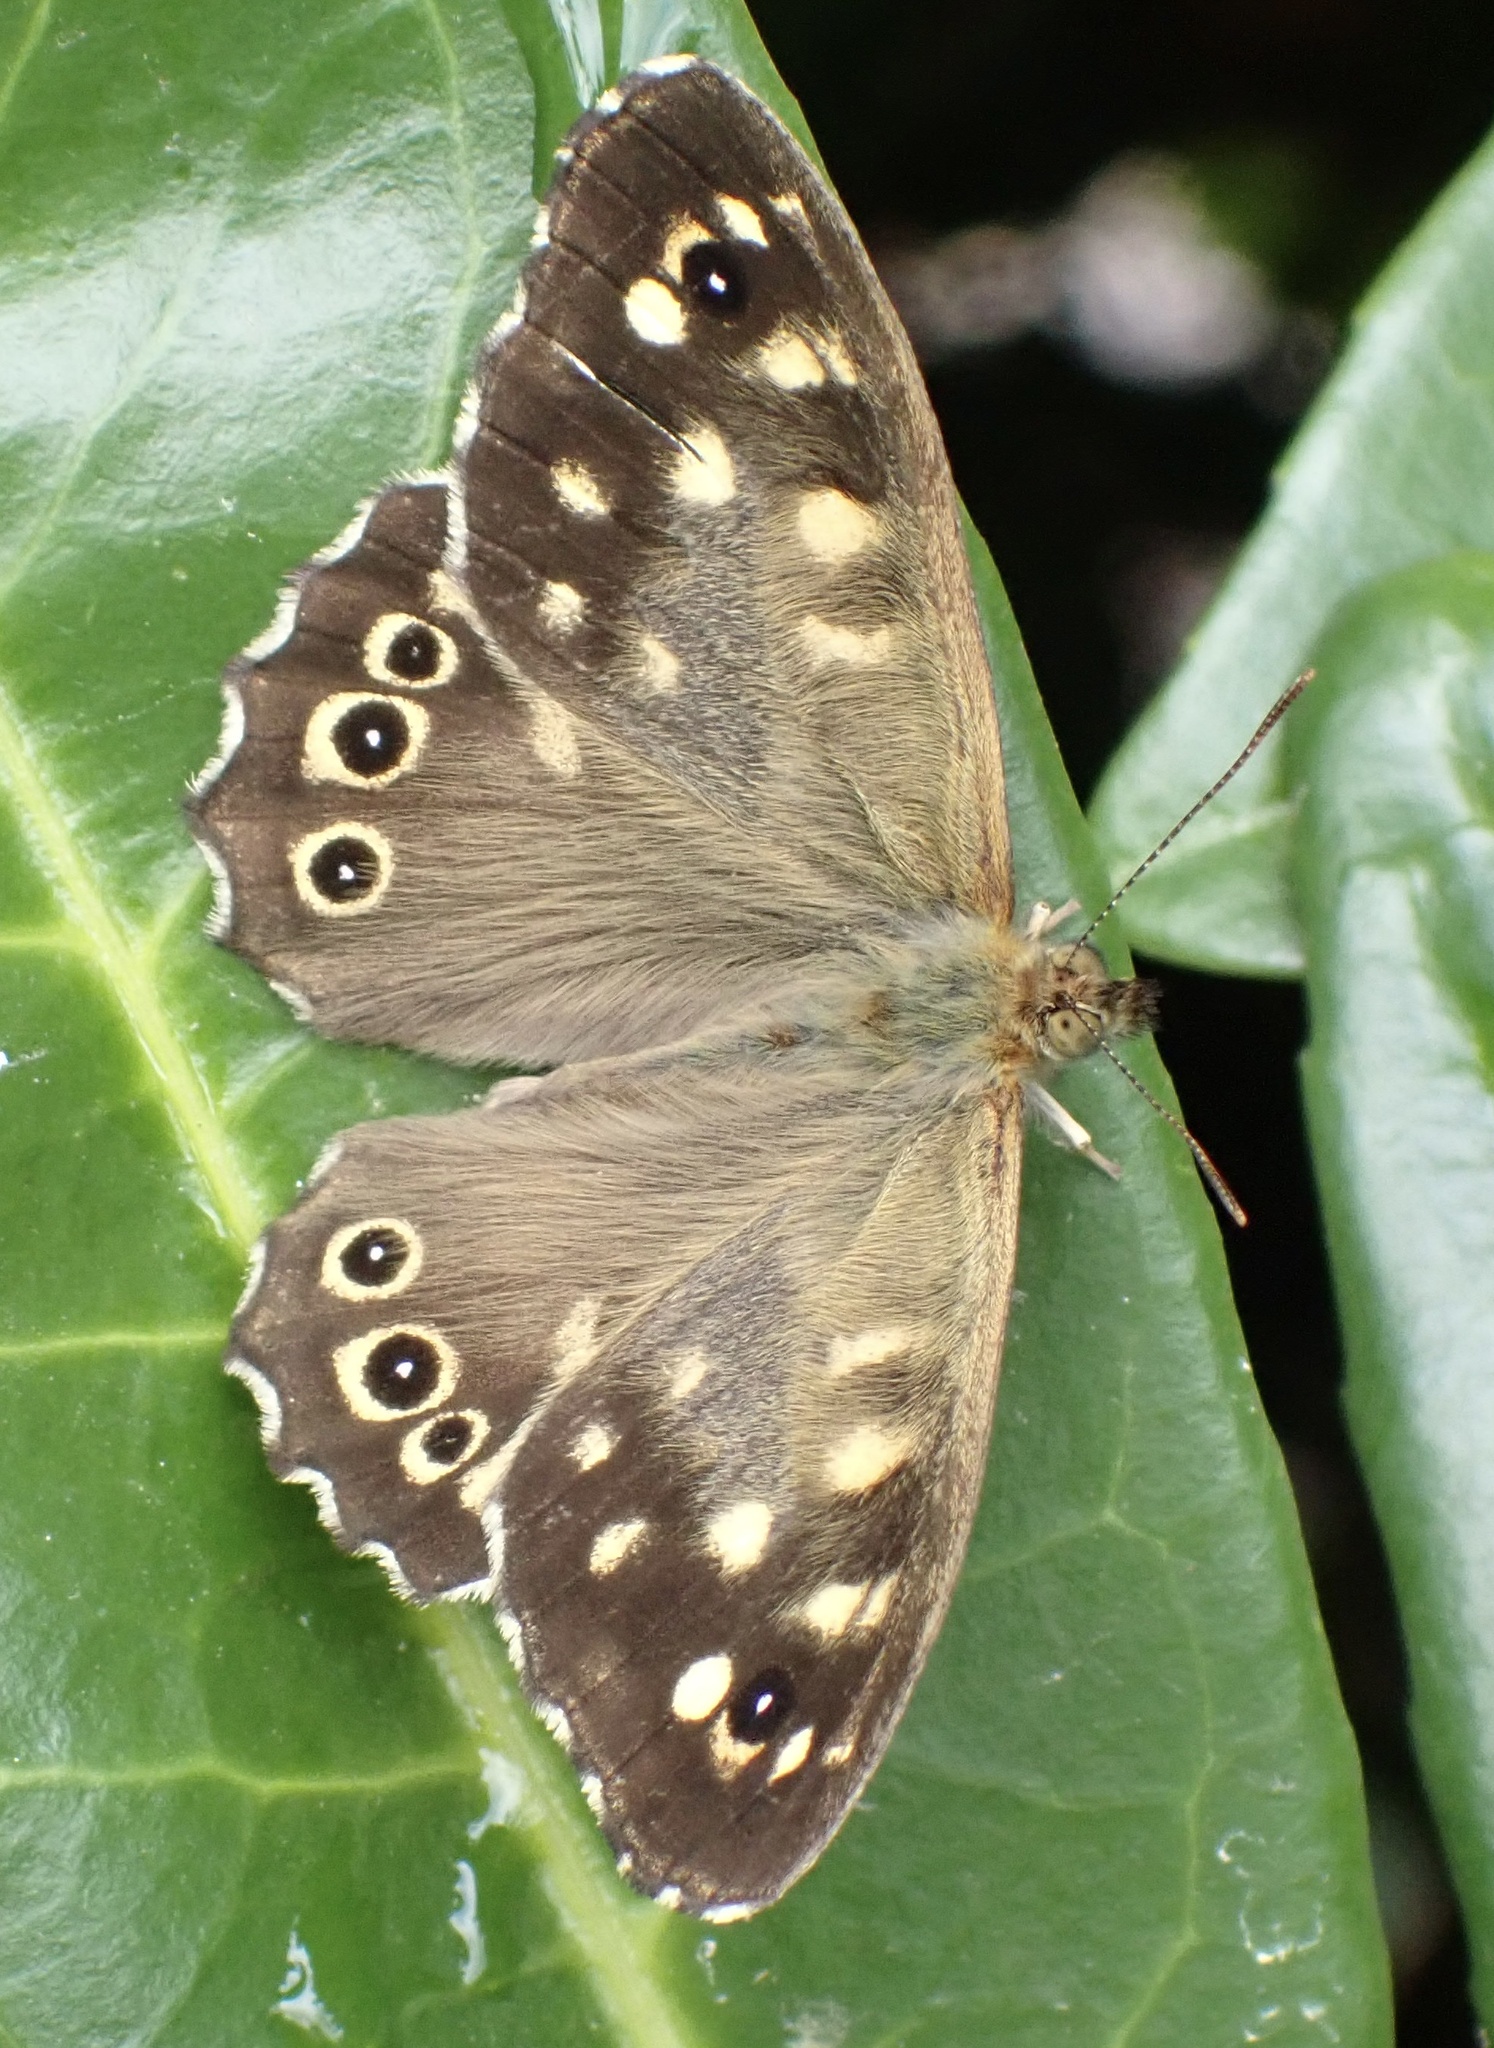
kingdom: Animalia
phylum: Arthropoda
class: Insecta
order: Lepidoptera
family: Nymphalidae
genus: Pararge
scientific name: Pararge aegeria
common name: Speckled wood
